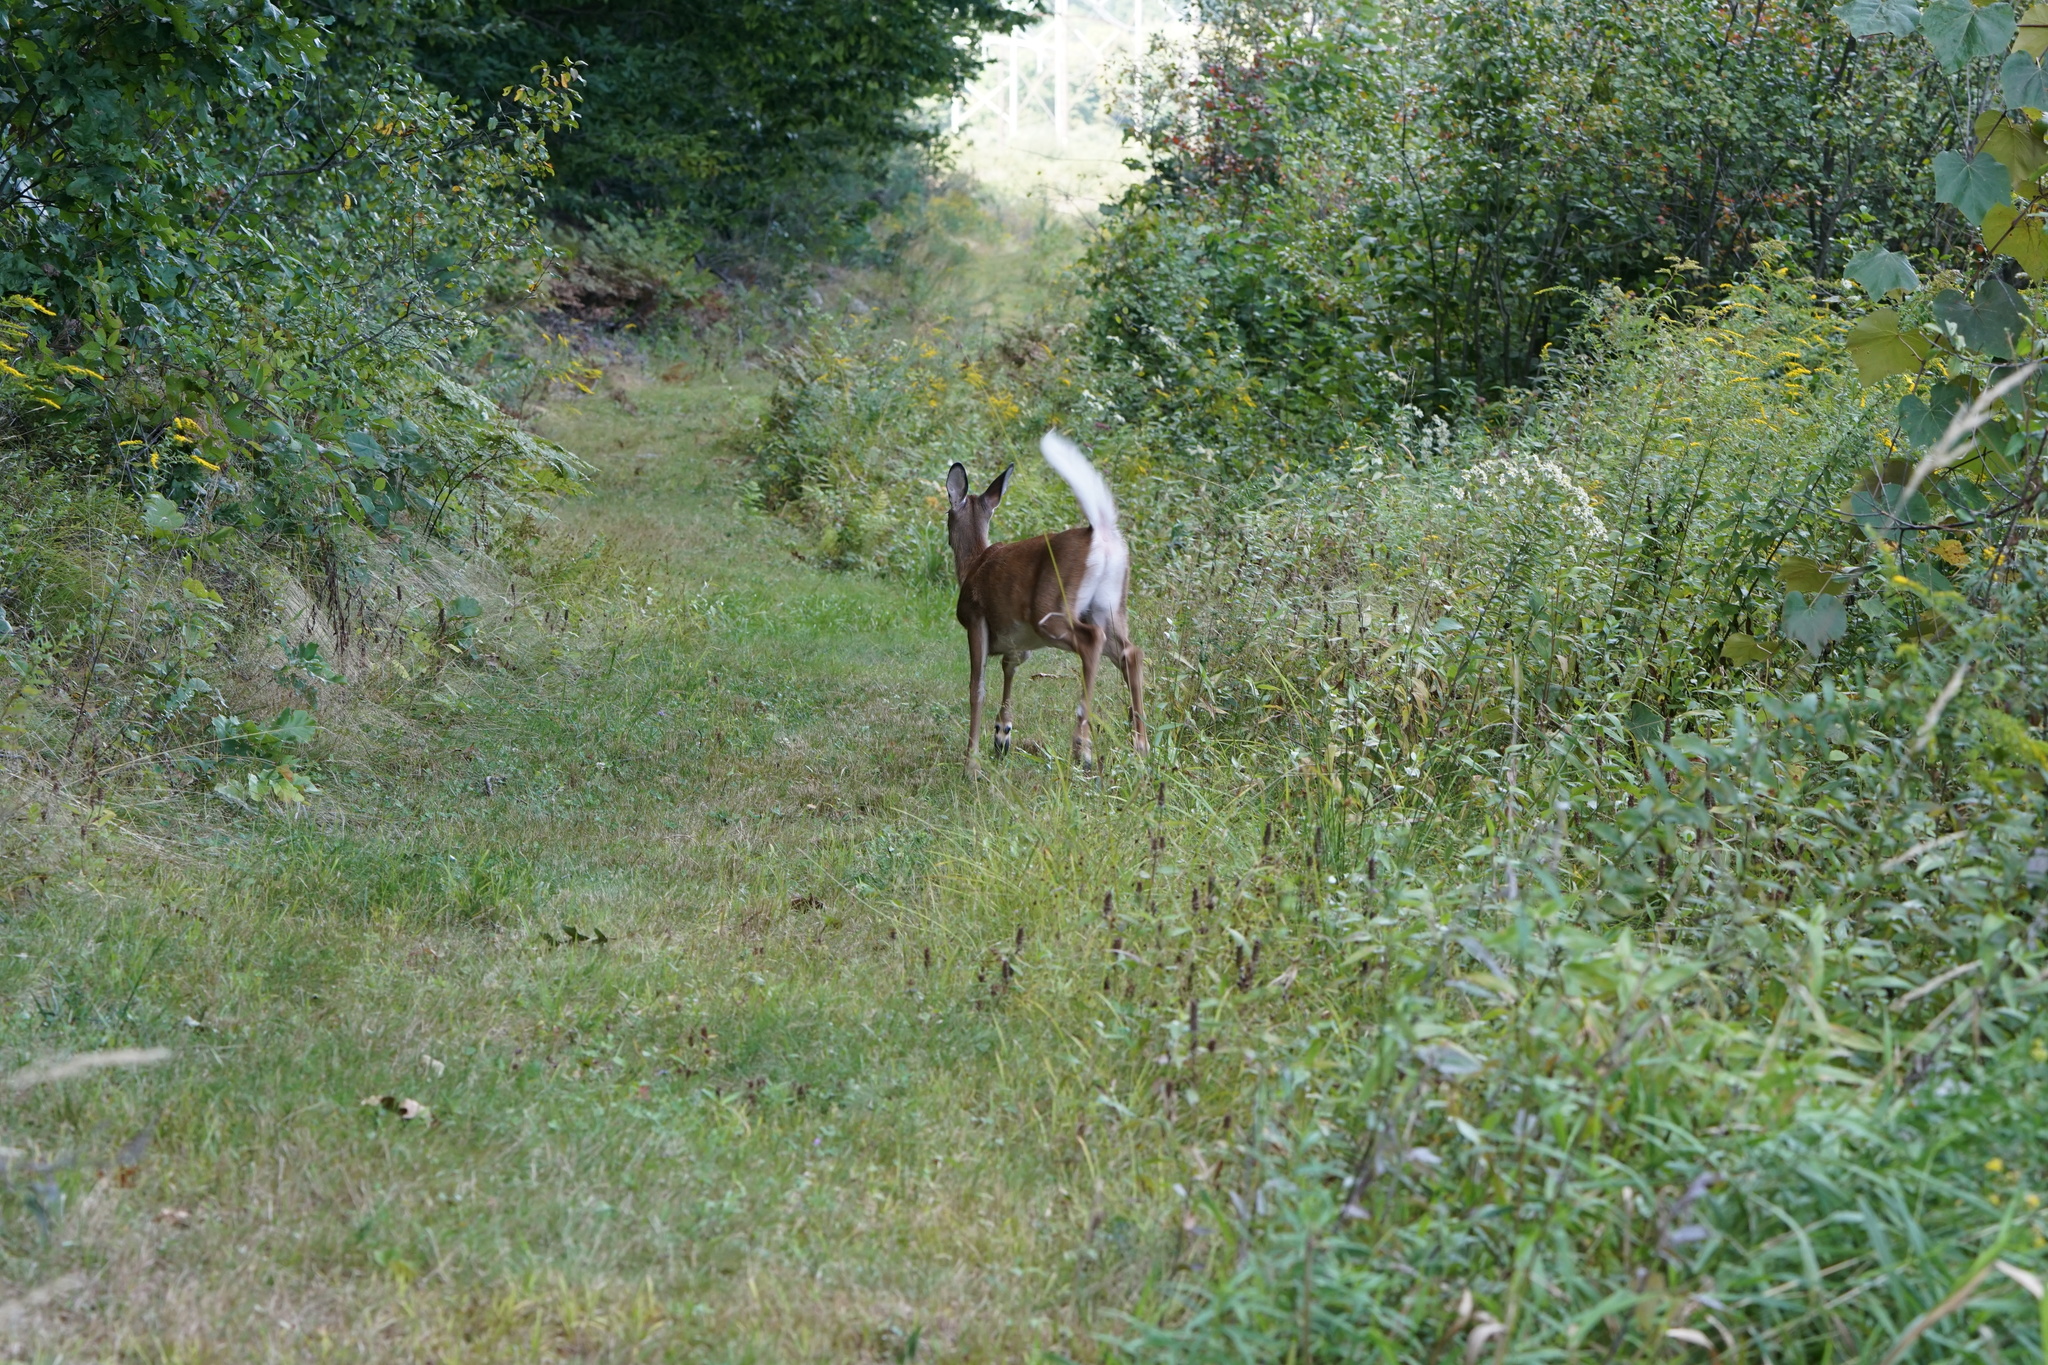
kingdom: Animalia
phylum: Chordata
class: Mammalia
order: Artiodactyla
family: Cervidae
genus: Odocoileus
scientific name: Odocoileus virginianus
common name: White-tailed deer
